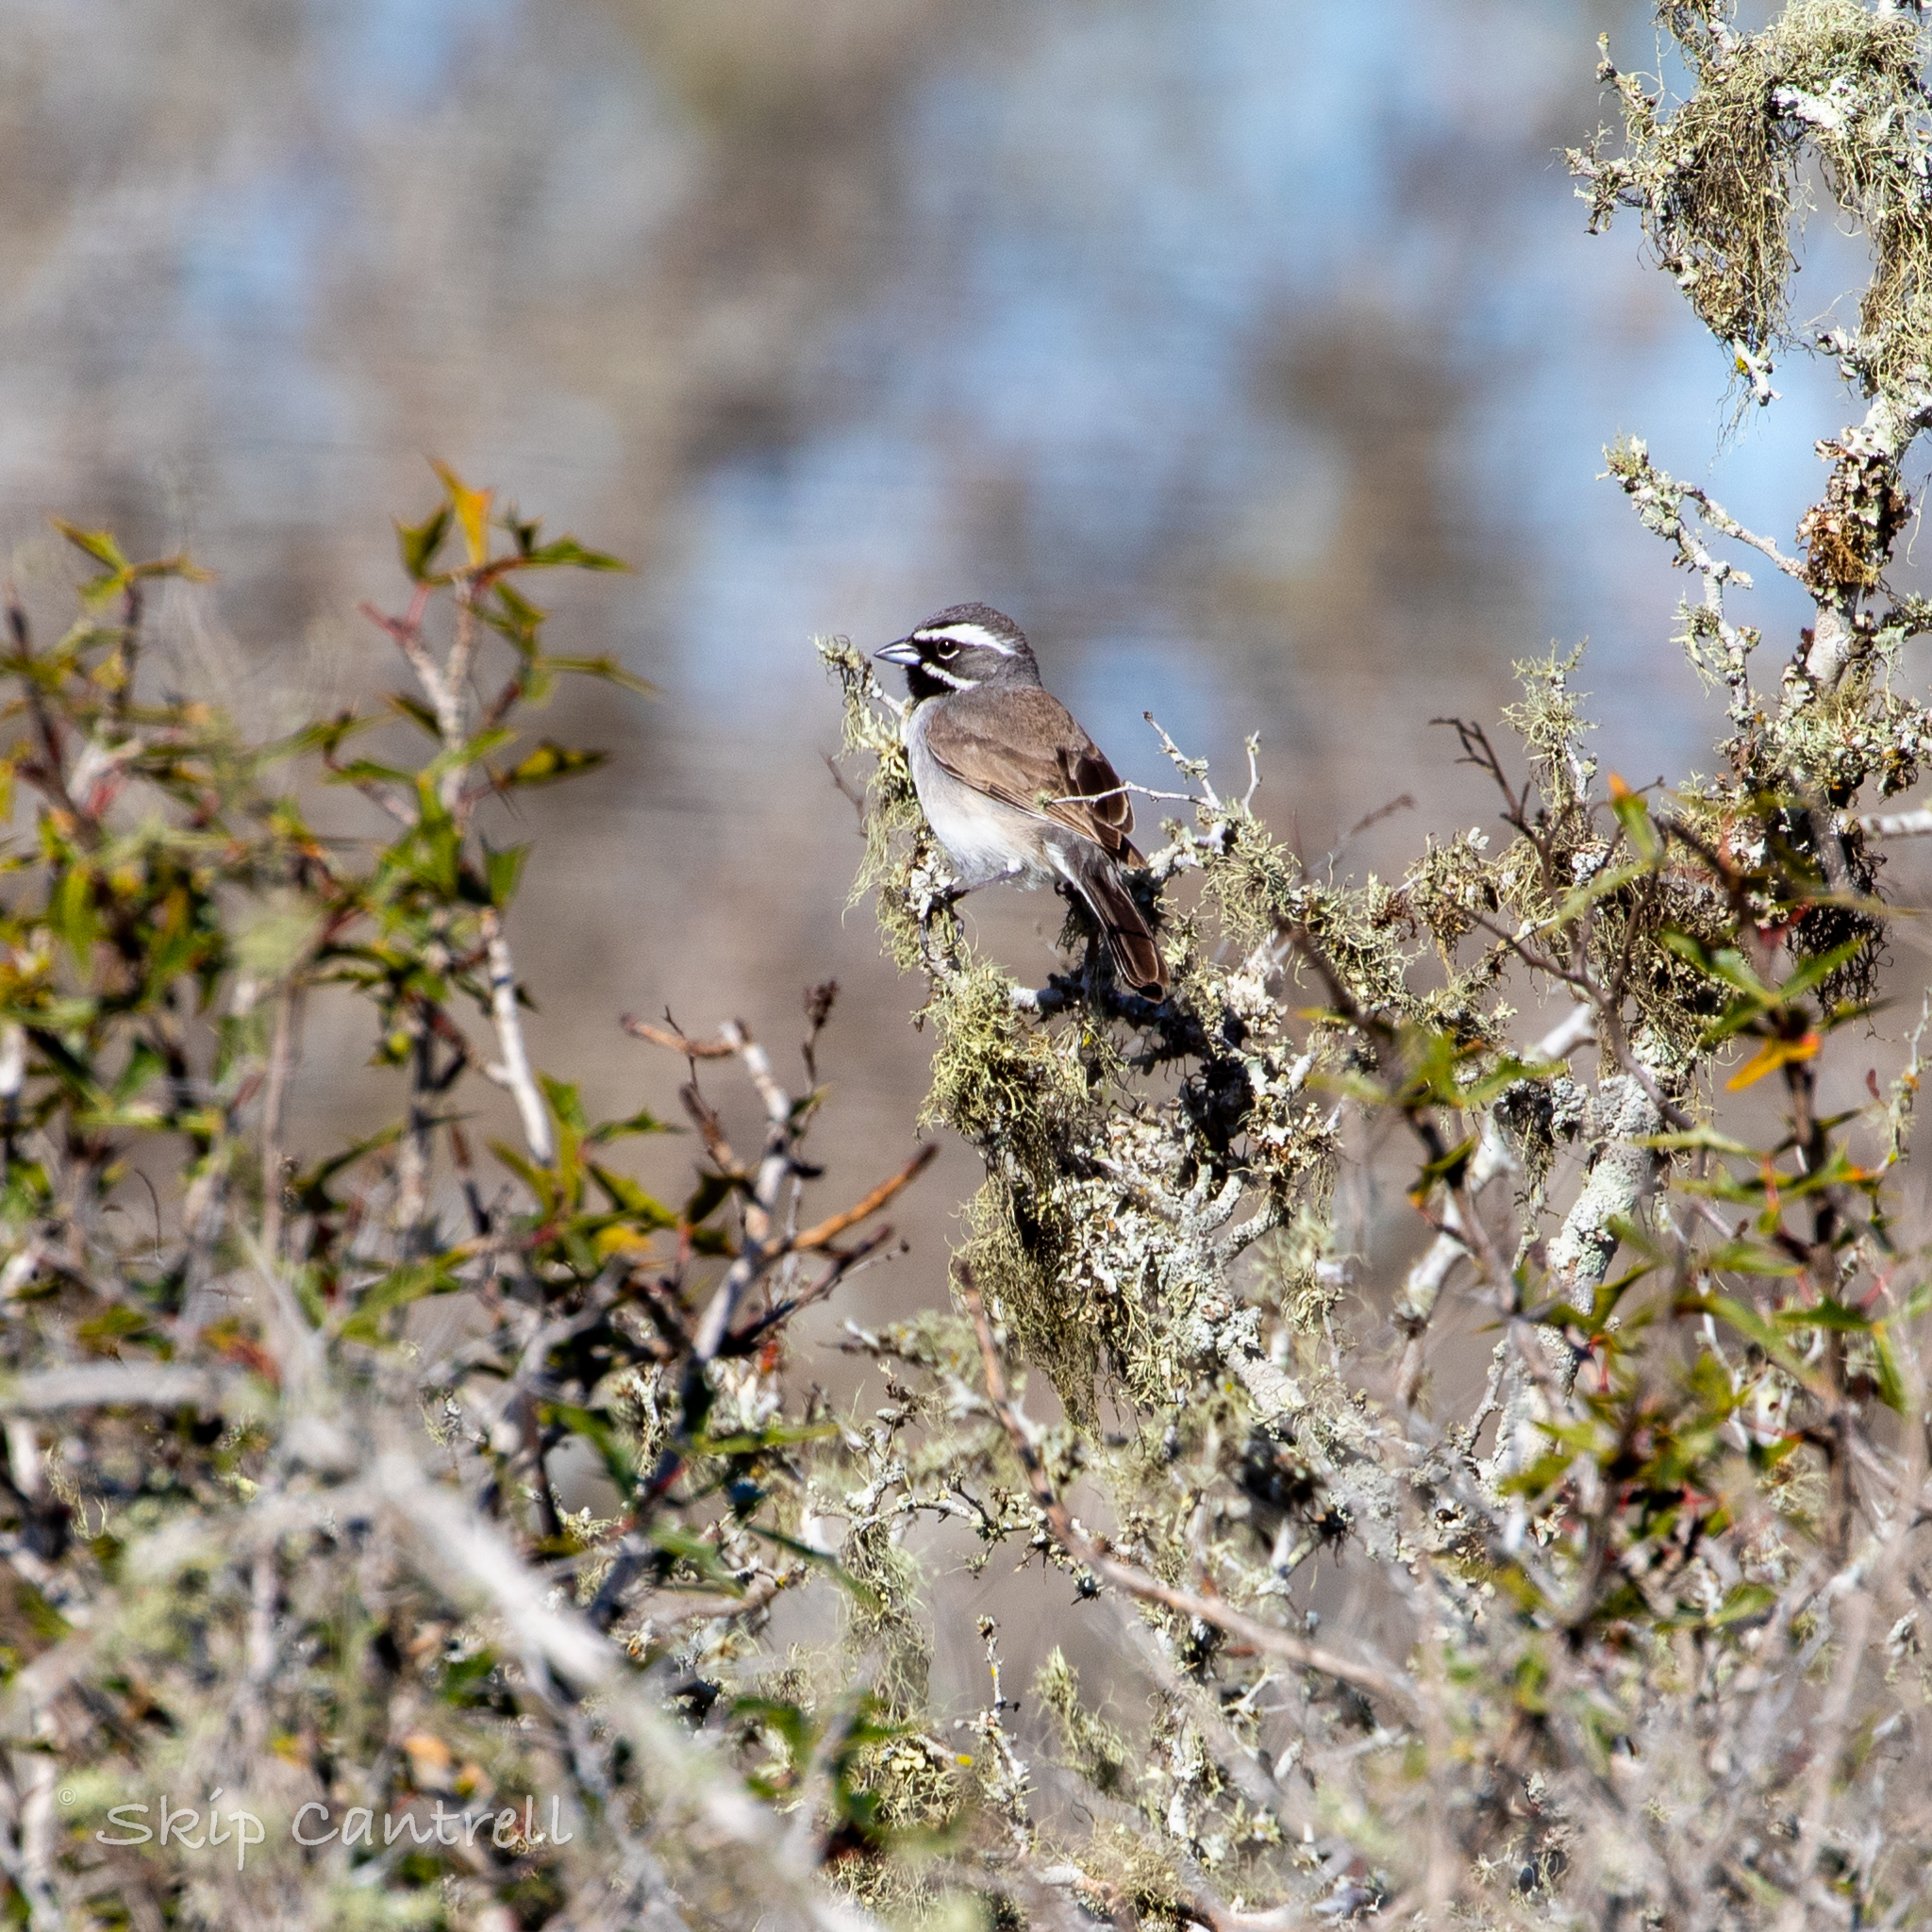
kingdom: Animalia
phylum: Chordata
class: Aves
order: Passeriformes
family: Passerellidae
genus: Amphispiza
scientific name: Amphispiza bilineata
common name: Black-throated sparrow
